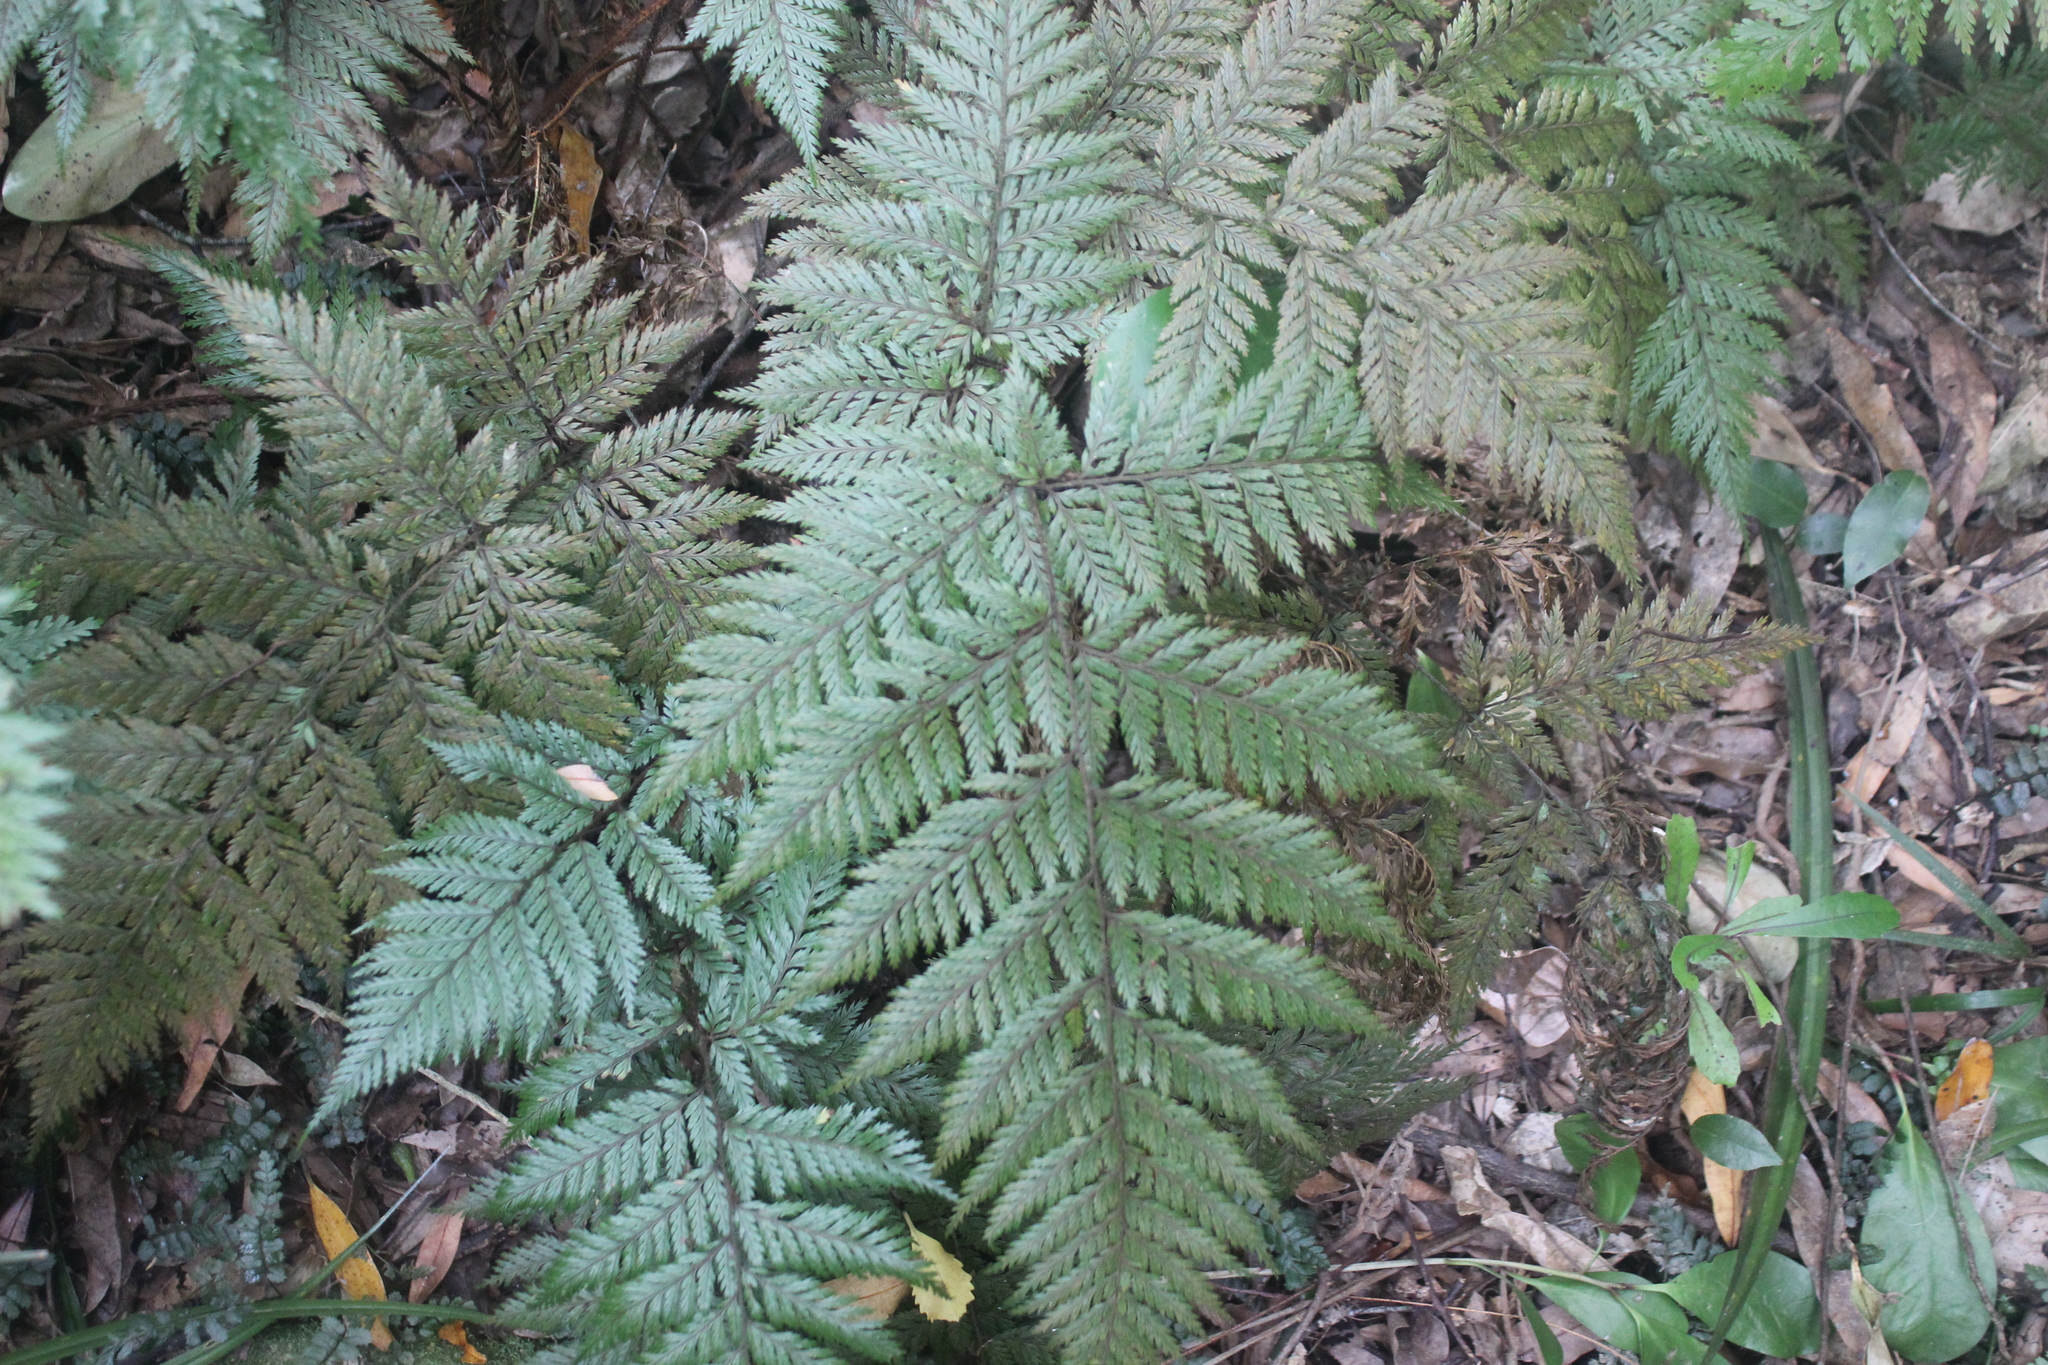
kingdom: Plantae
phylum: Tracheophyta
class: Polypodiopsida
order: Polypodiales
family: Dryopteridaceae
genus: Lastreopsis
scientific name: Lastreopsis hispida
